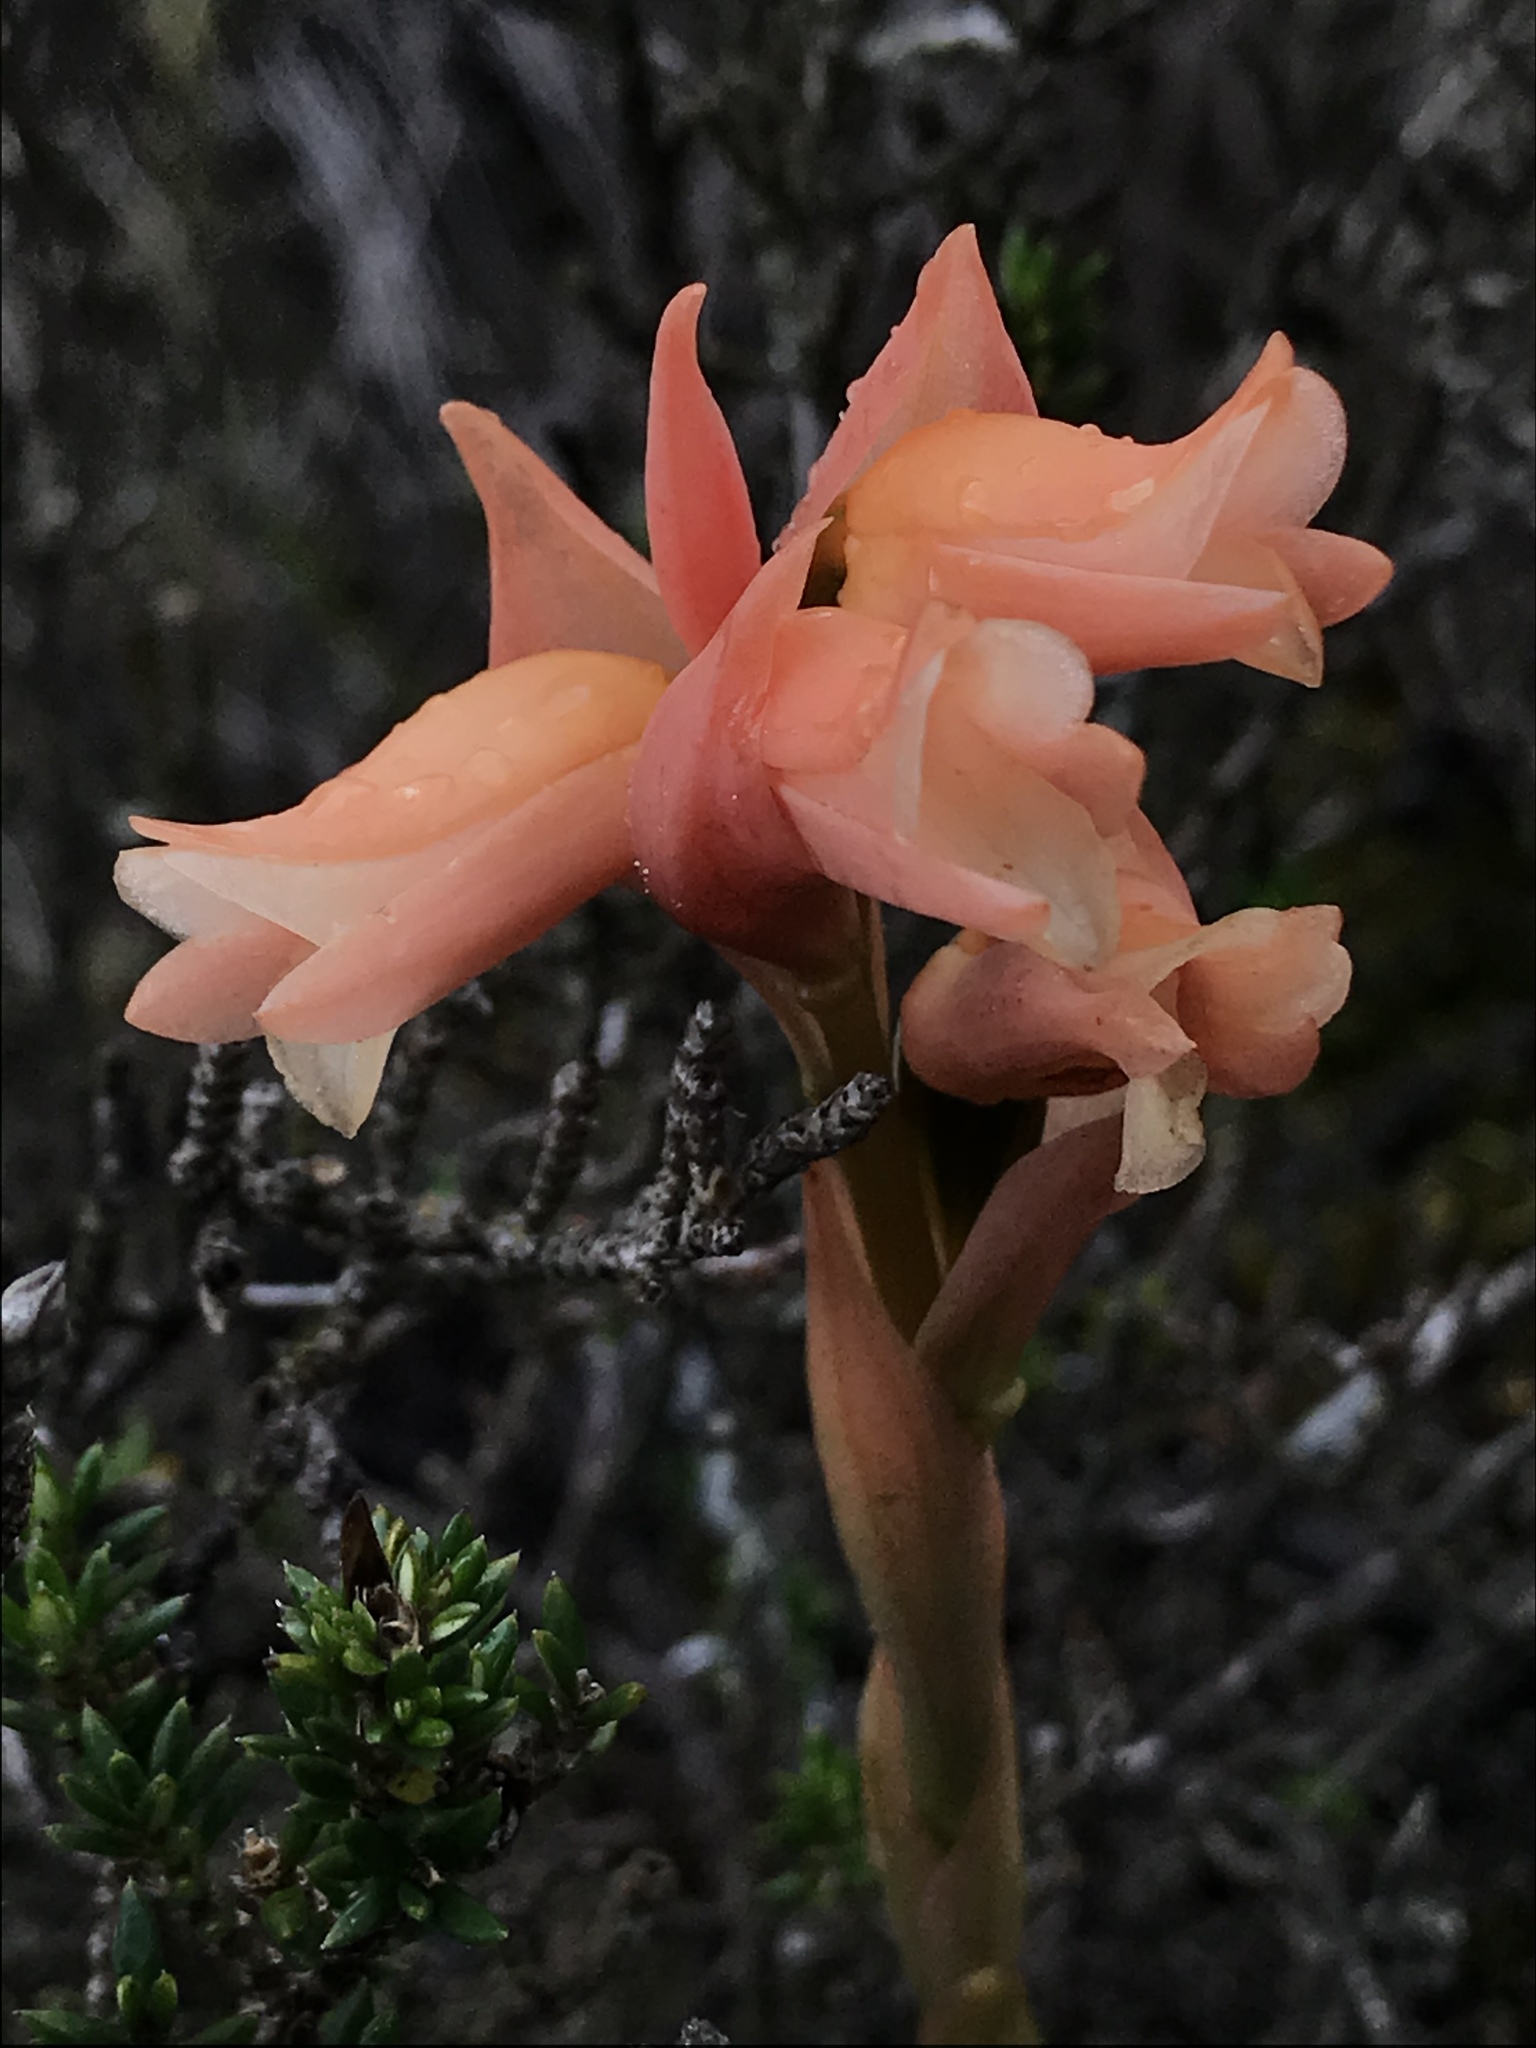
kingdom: Plantae
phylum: Tracheophyta
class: Liliopsida
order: Asparagales
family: Orchidaceae
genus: Stenorrhynchos
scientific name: Stenorrhynchos vaginatum
